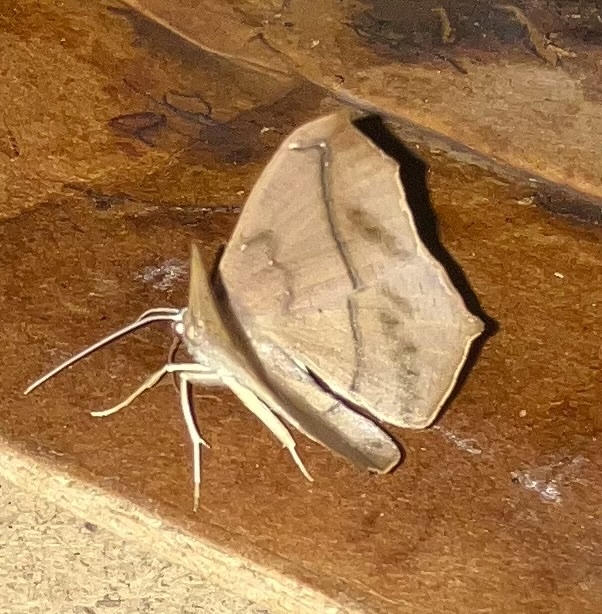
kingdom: Animalia
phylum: Arthropoda
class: Insecta
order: Lepidoptera
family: Geometridae
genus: Prochoerodes
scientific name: Prochoerodes lineola
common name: Large maple spanworm
